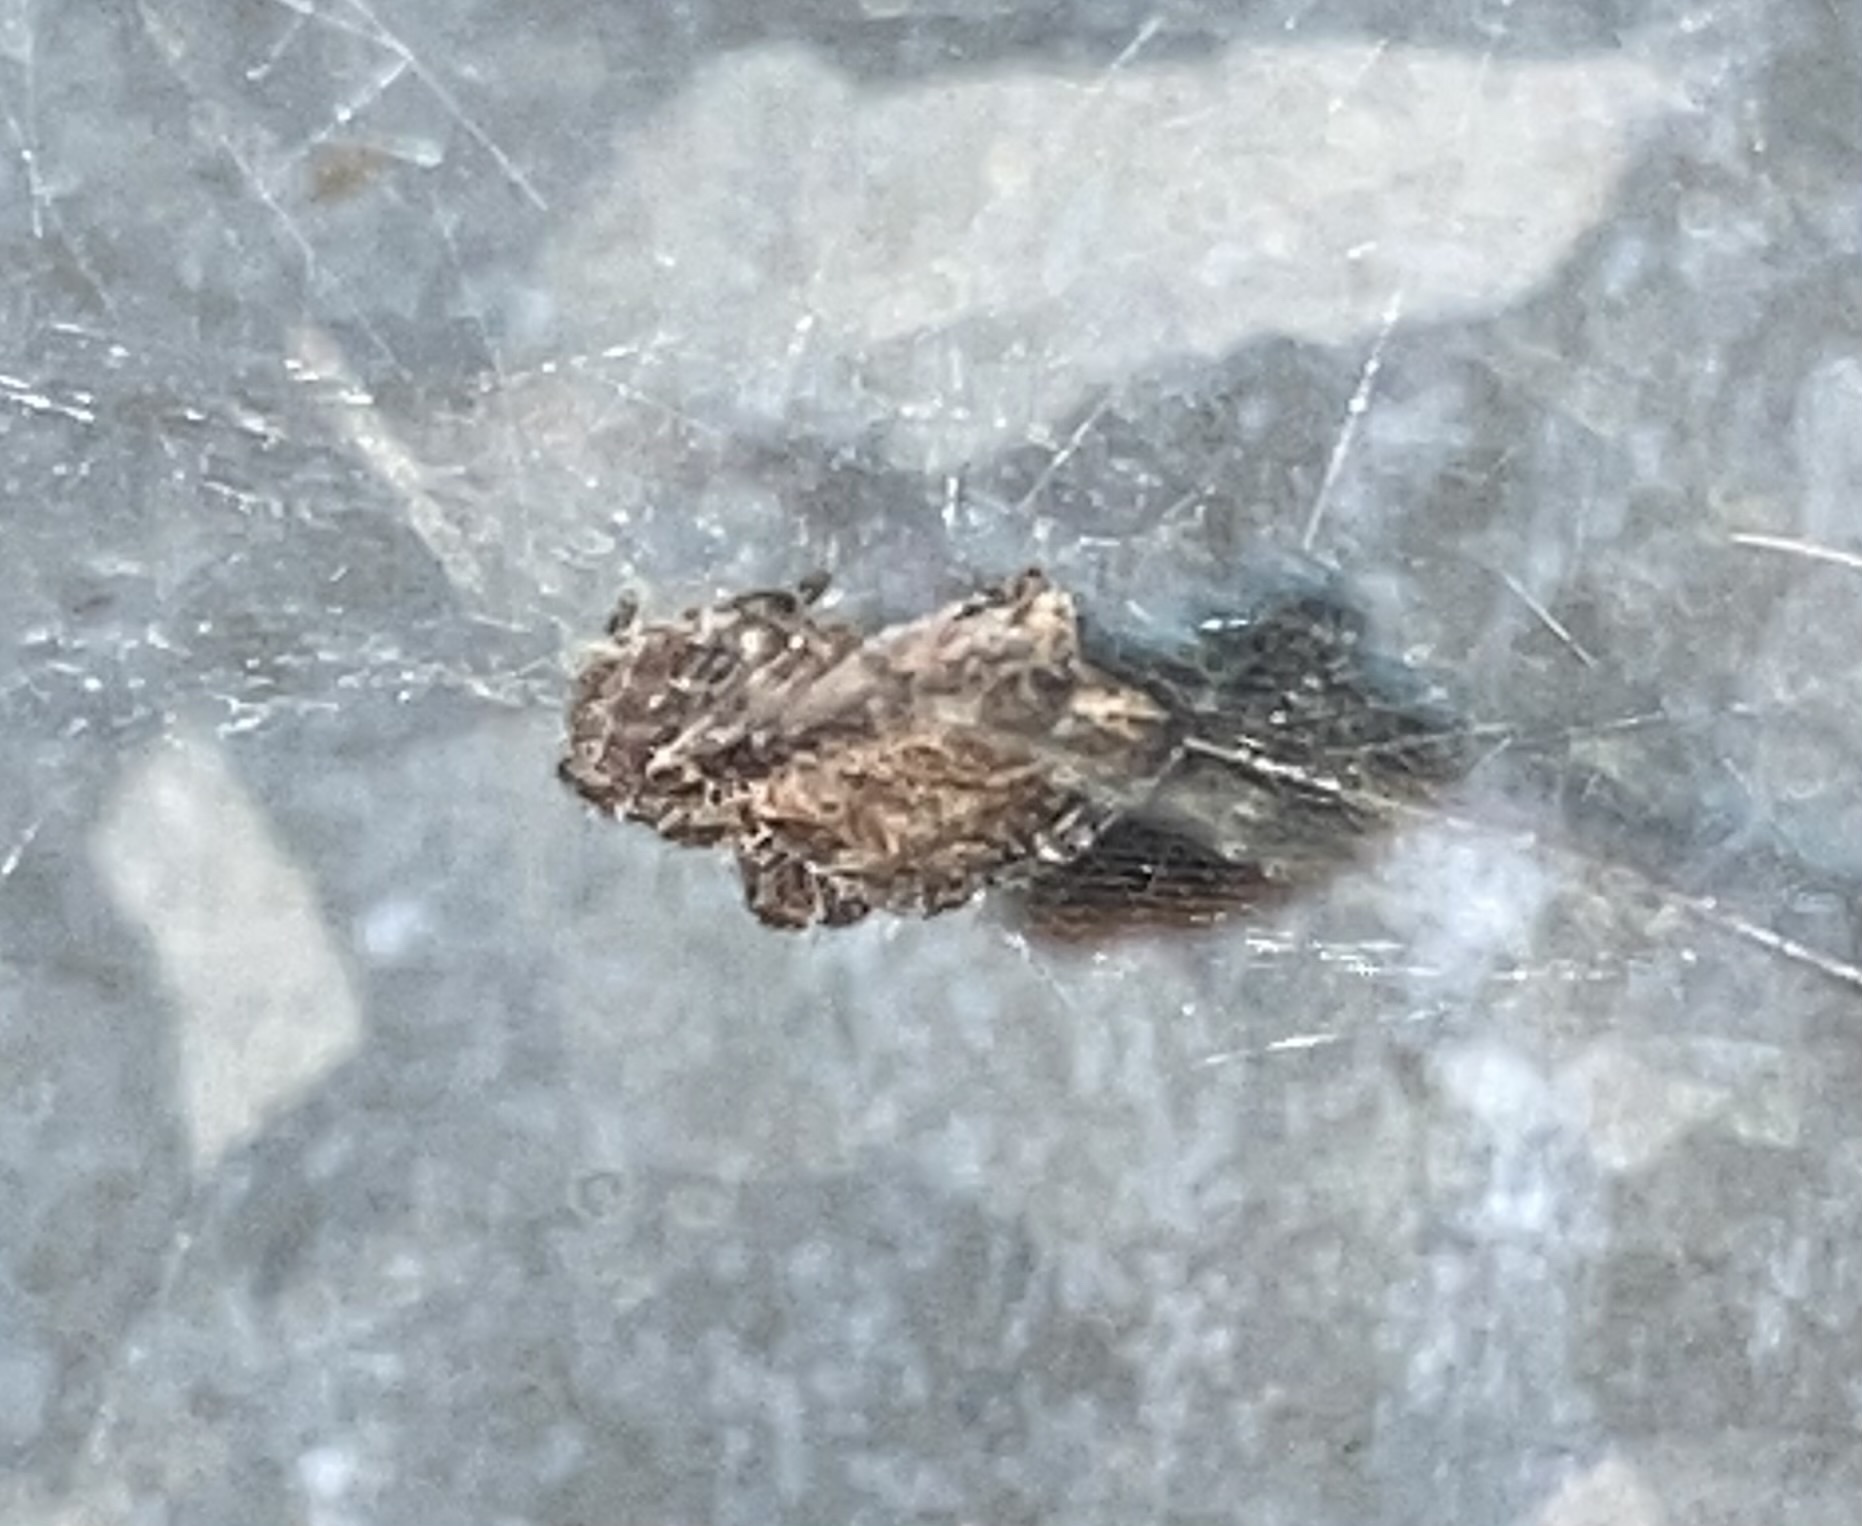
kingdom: Animalia
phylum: Arthropoda
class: Arachnida
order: Araneae
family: Araneidae
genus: Cyrtophora
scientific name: Cyrtophora citricola
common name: Orb weavers
